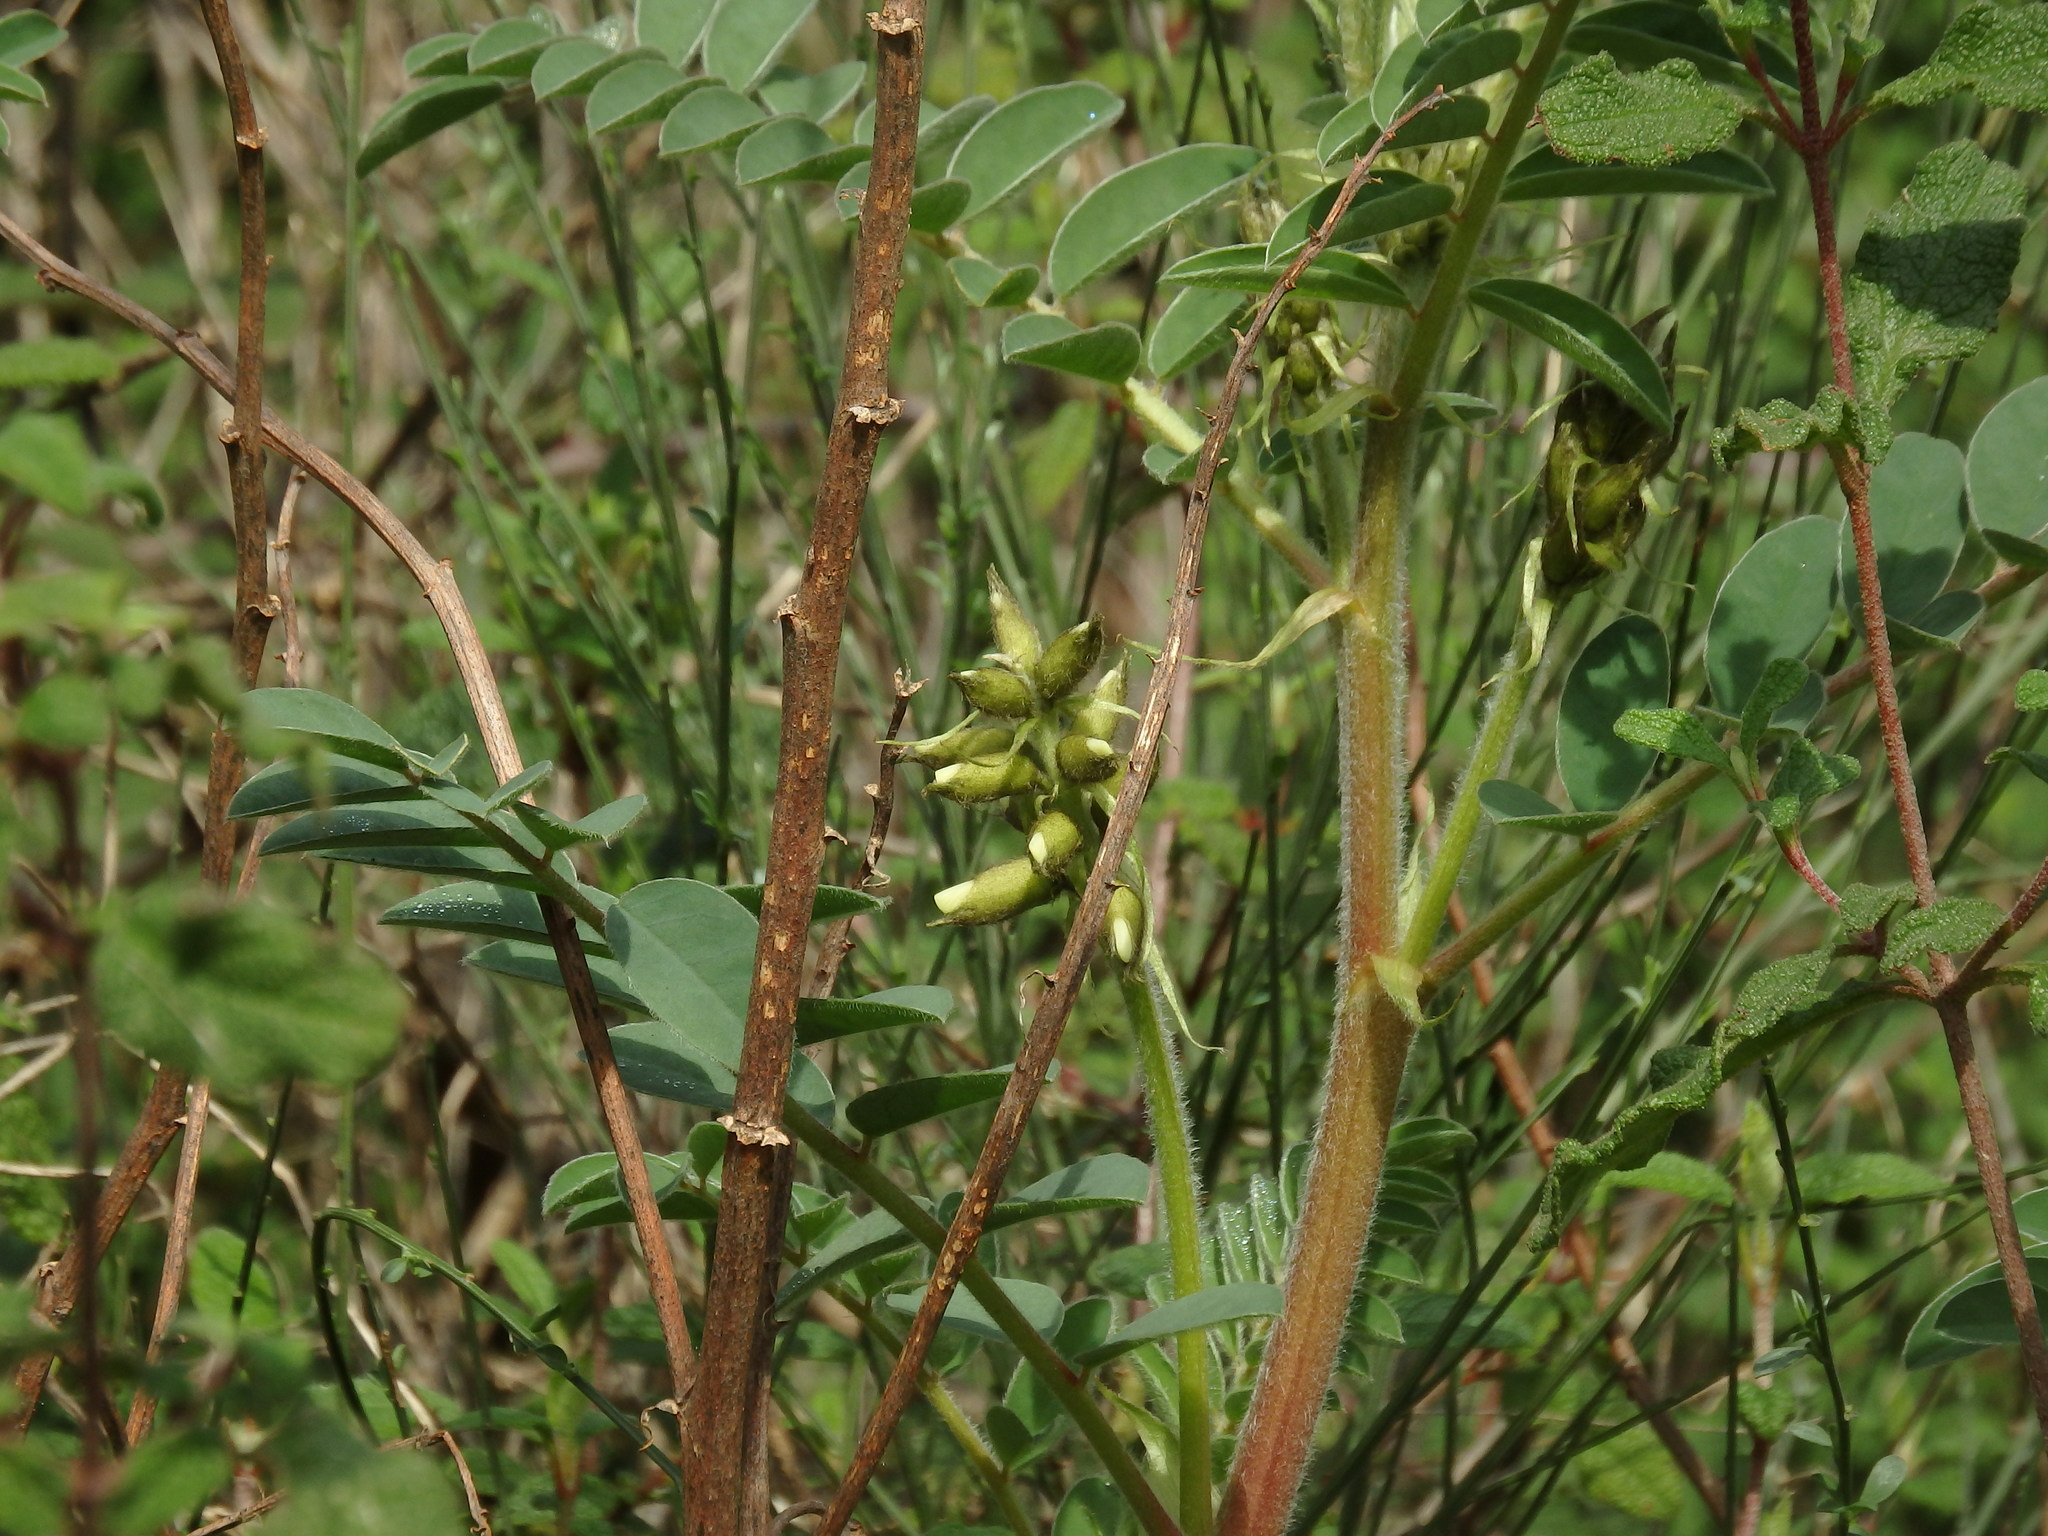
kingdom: Plantae
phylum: Tracheophyta
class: Magnoliopsida
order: Fabales
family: Fabaceae
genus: Erophaca
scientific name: Erophaca baetica
